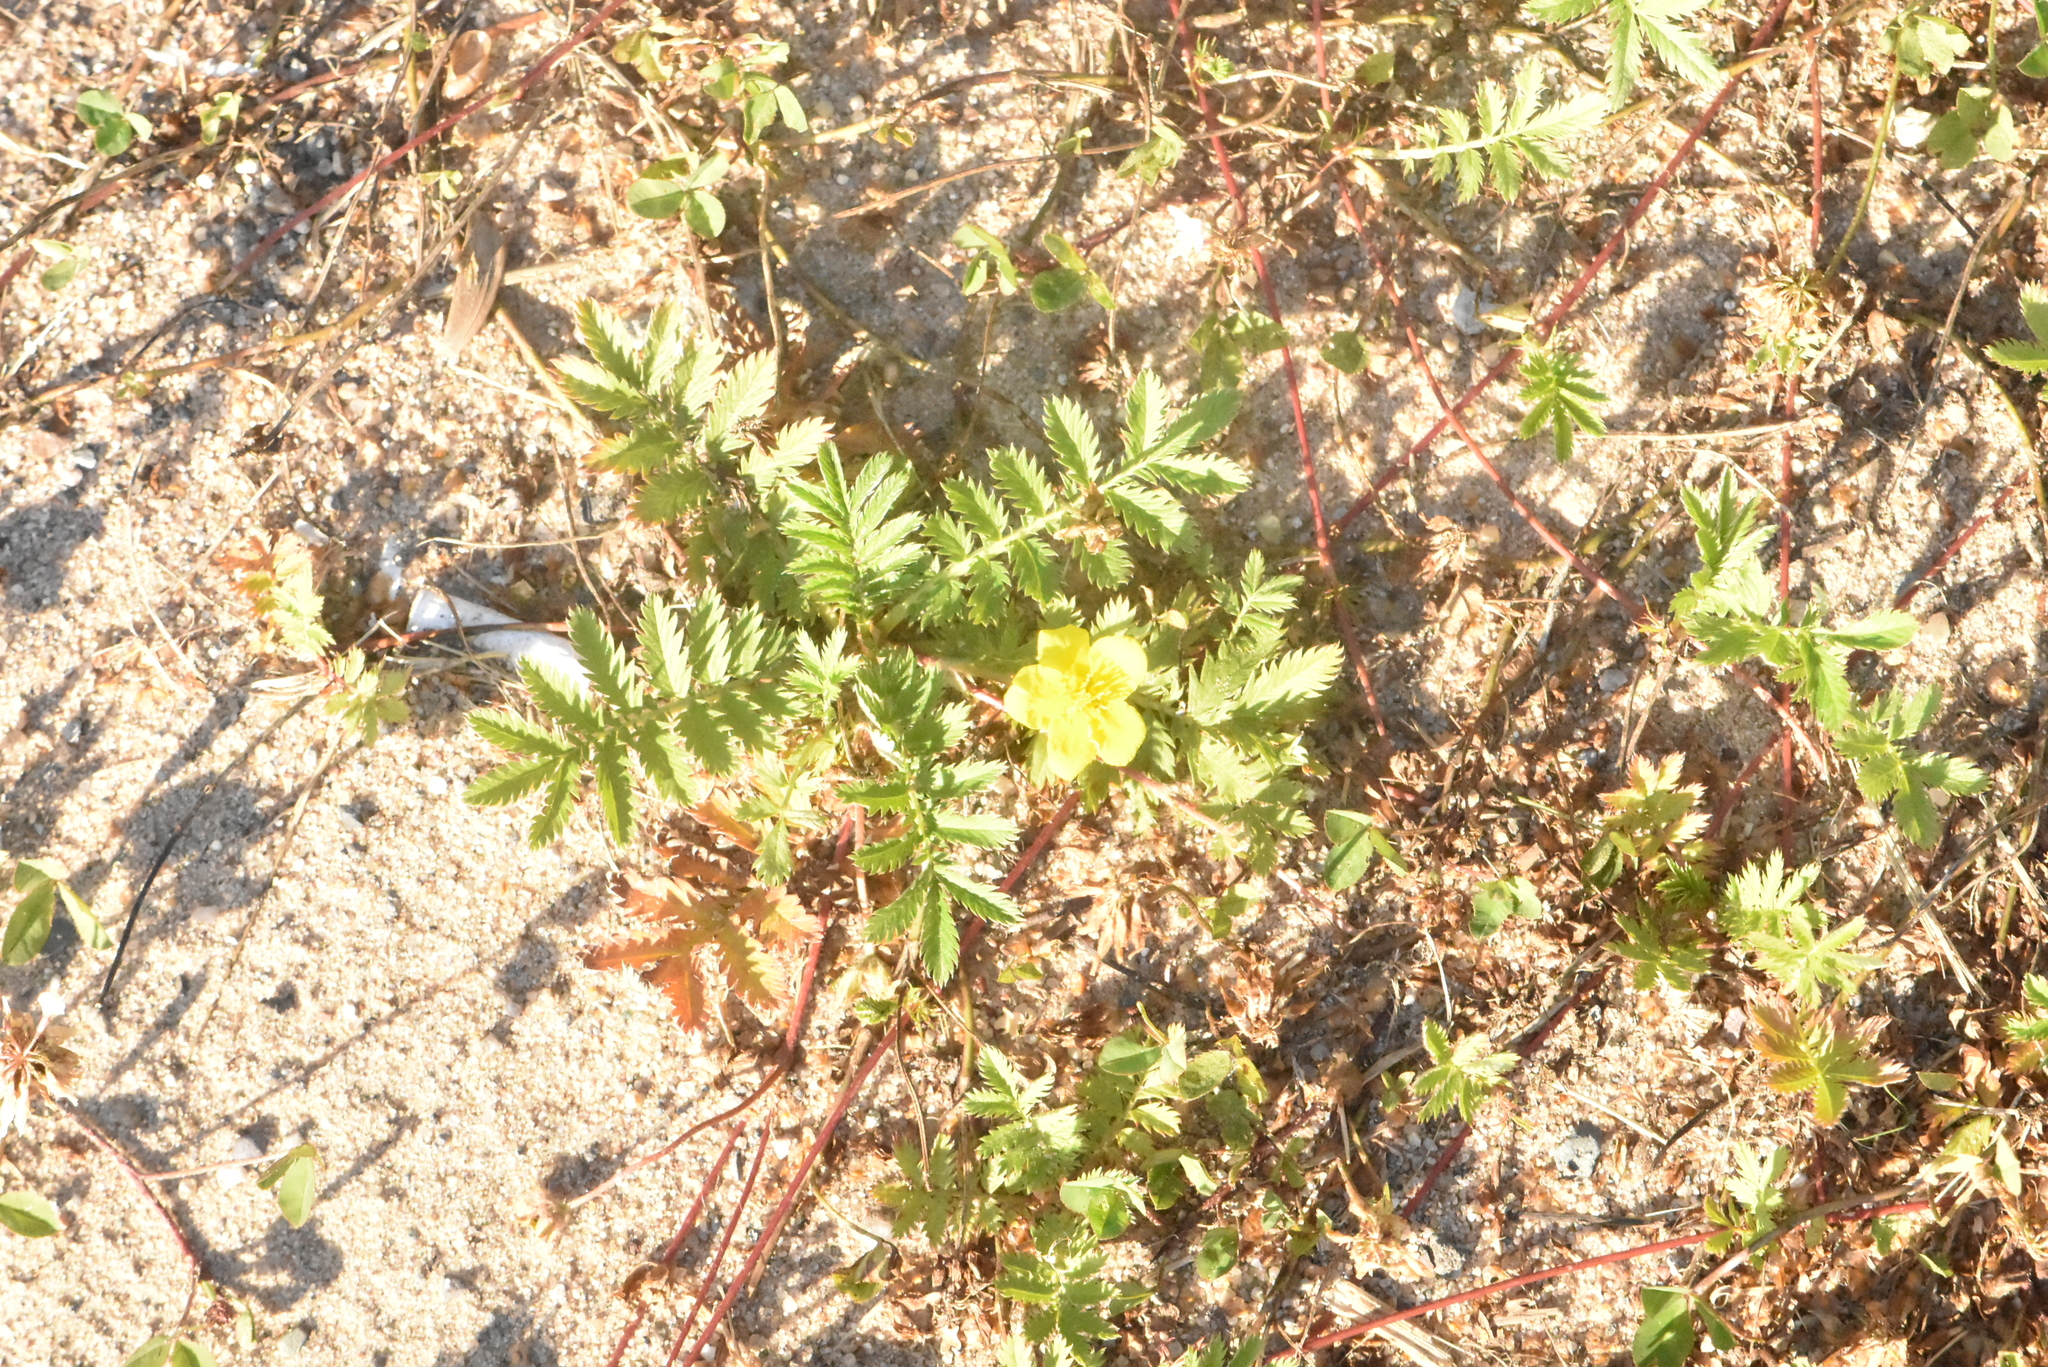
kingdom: Plantae
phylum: Tracheophyta
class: Magnoliopsida
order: Rosales
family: Rosaceae
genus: Argentina
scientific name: Argentina anserina
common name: Common silverweed
